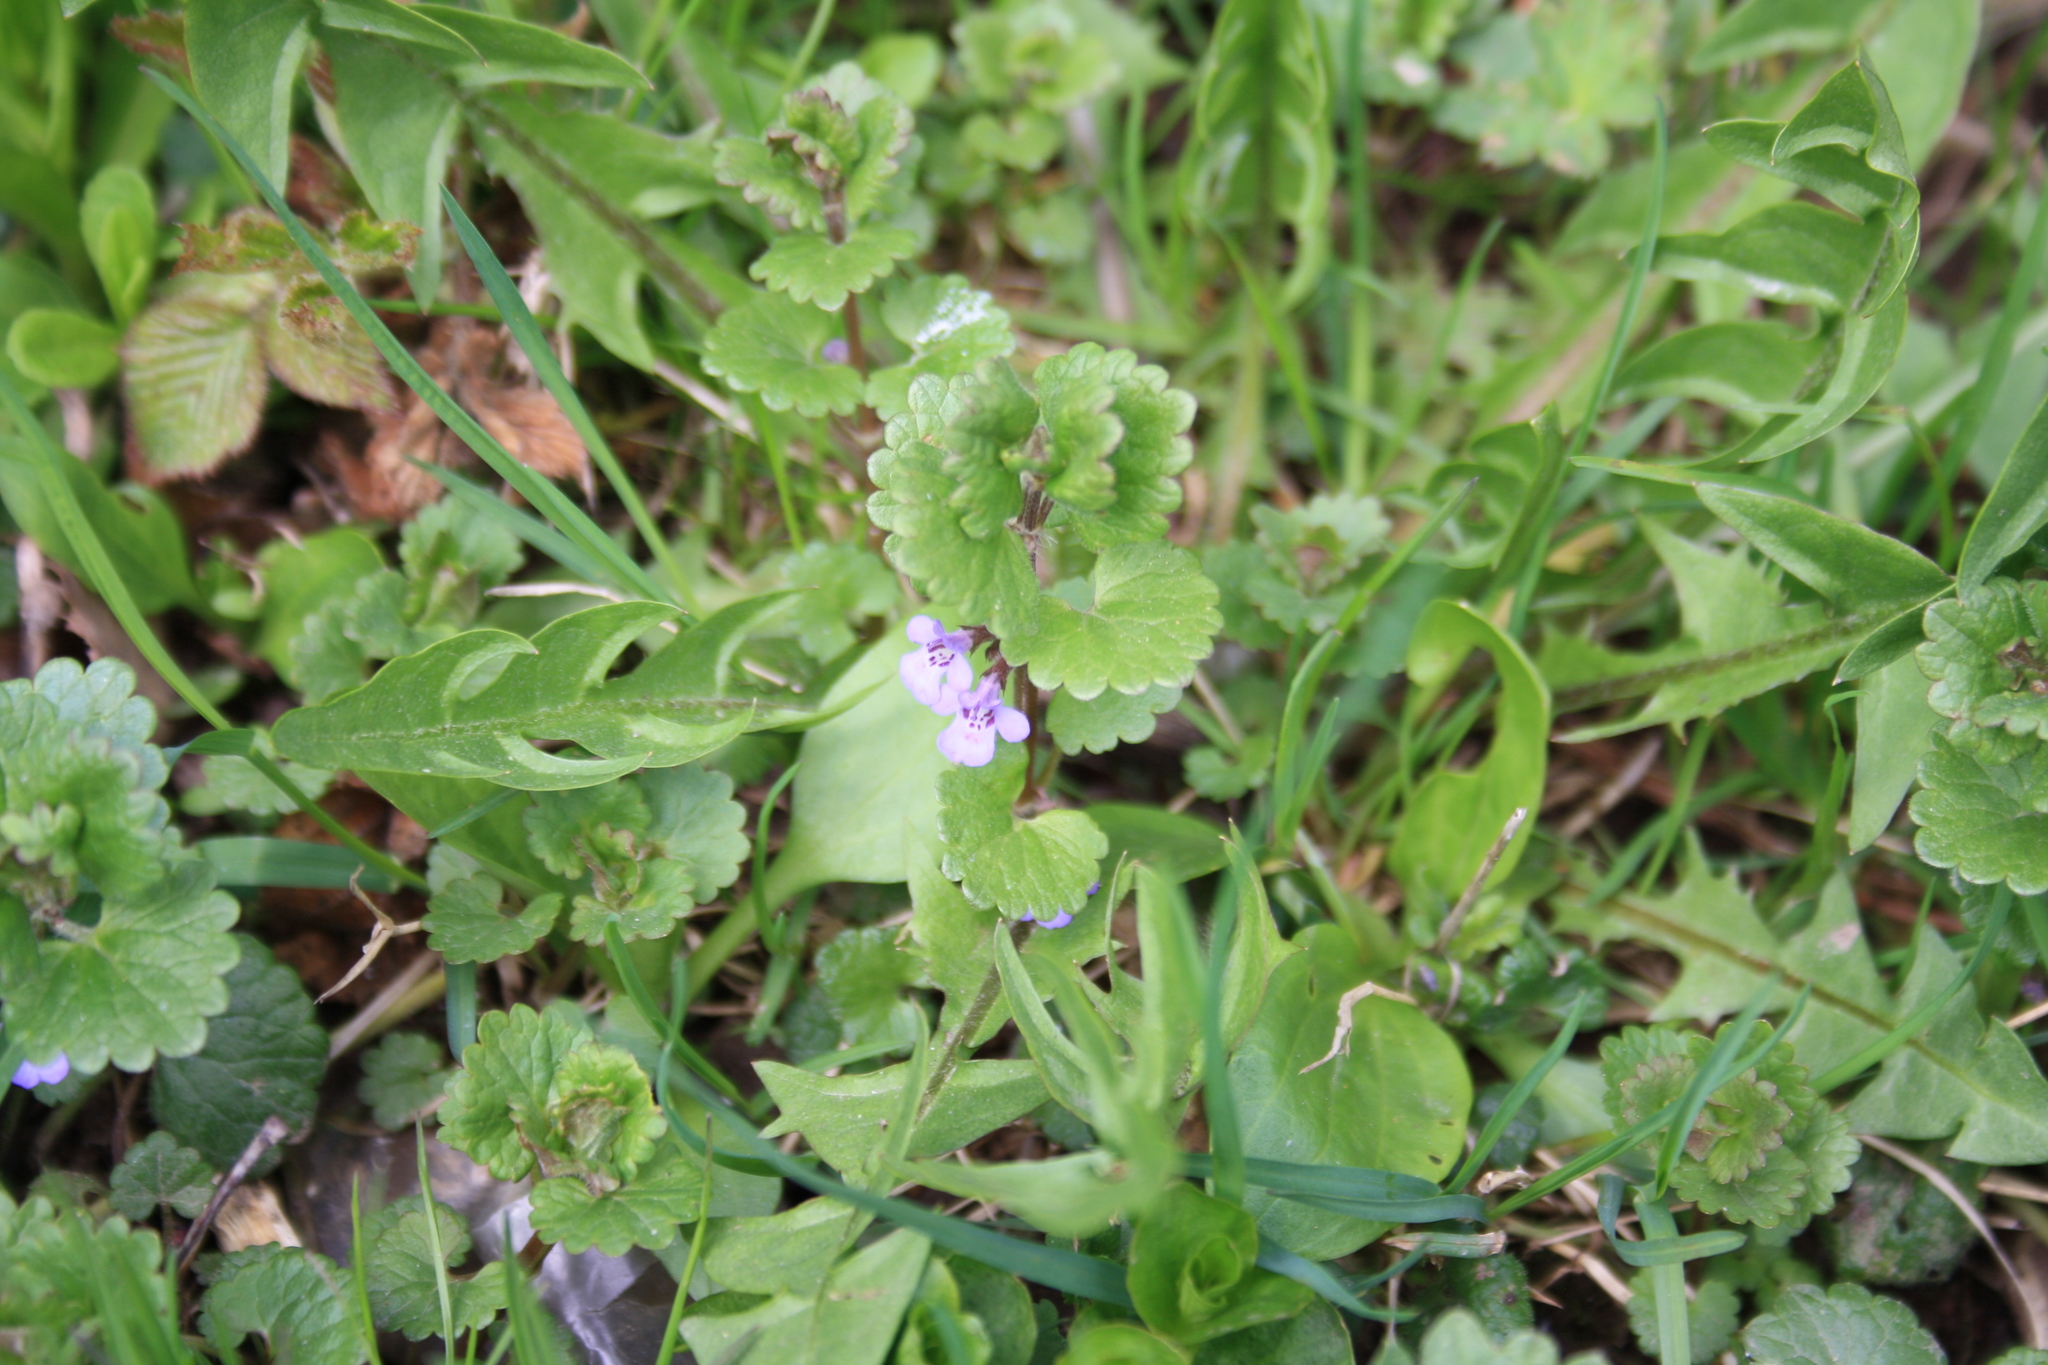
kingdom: Plantae
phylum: Tracheophyta
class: Magnoliopsida
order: Lamiales
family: Lamiaceae
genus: Glechoma
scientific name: Glechoma hederacea
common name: Ground ivy
